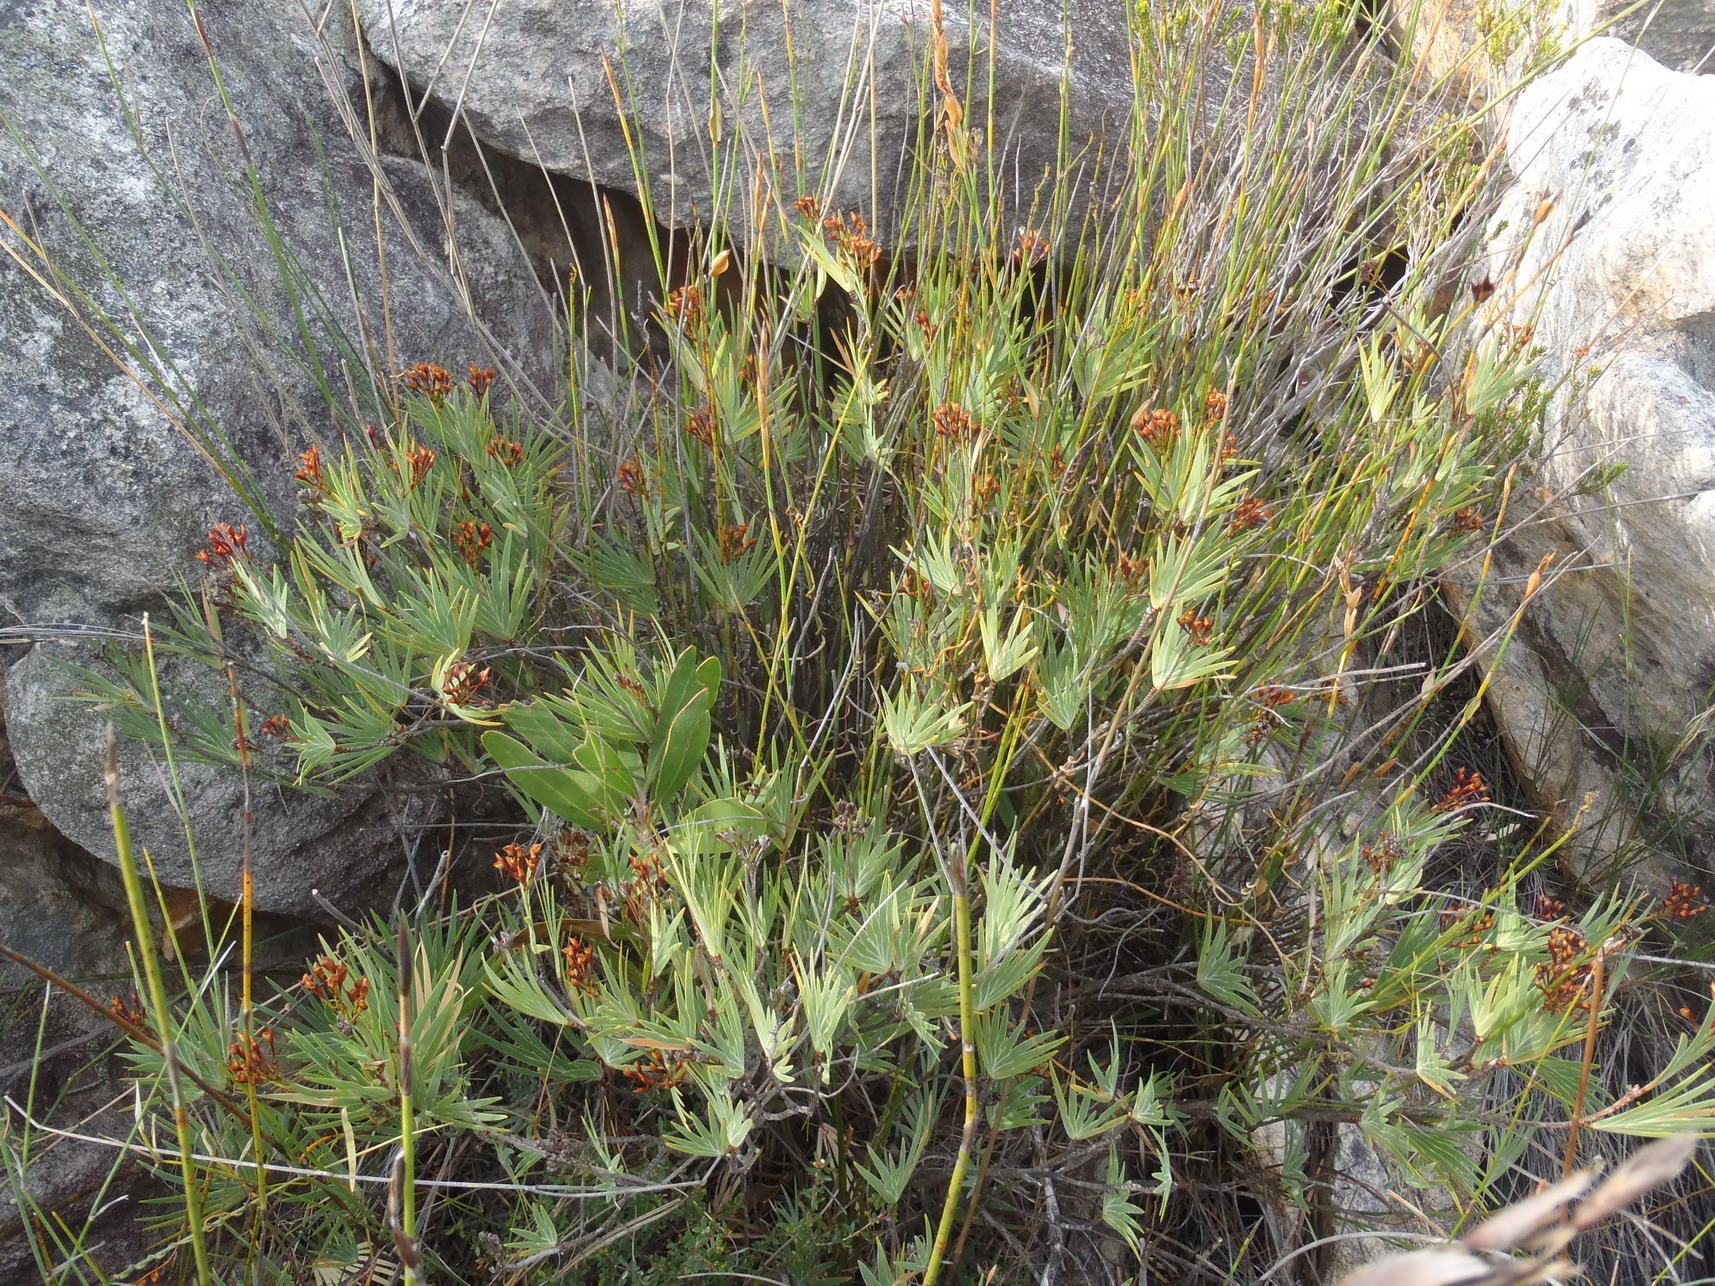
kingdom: Plantae
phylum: Tracheophyta
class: Liliopsida
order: Asparagales
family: Iridaceae
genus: Nivenia
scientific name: Nivenia binata
